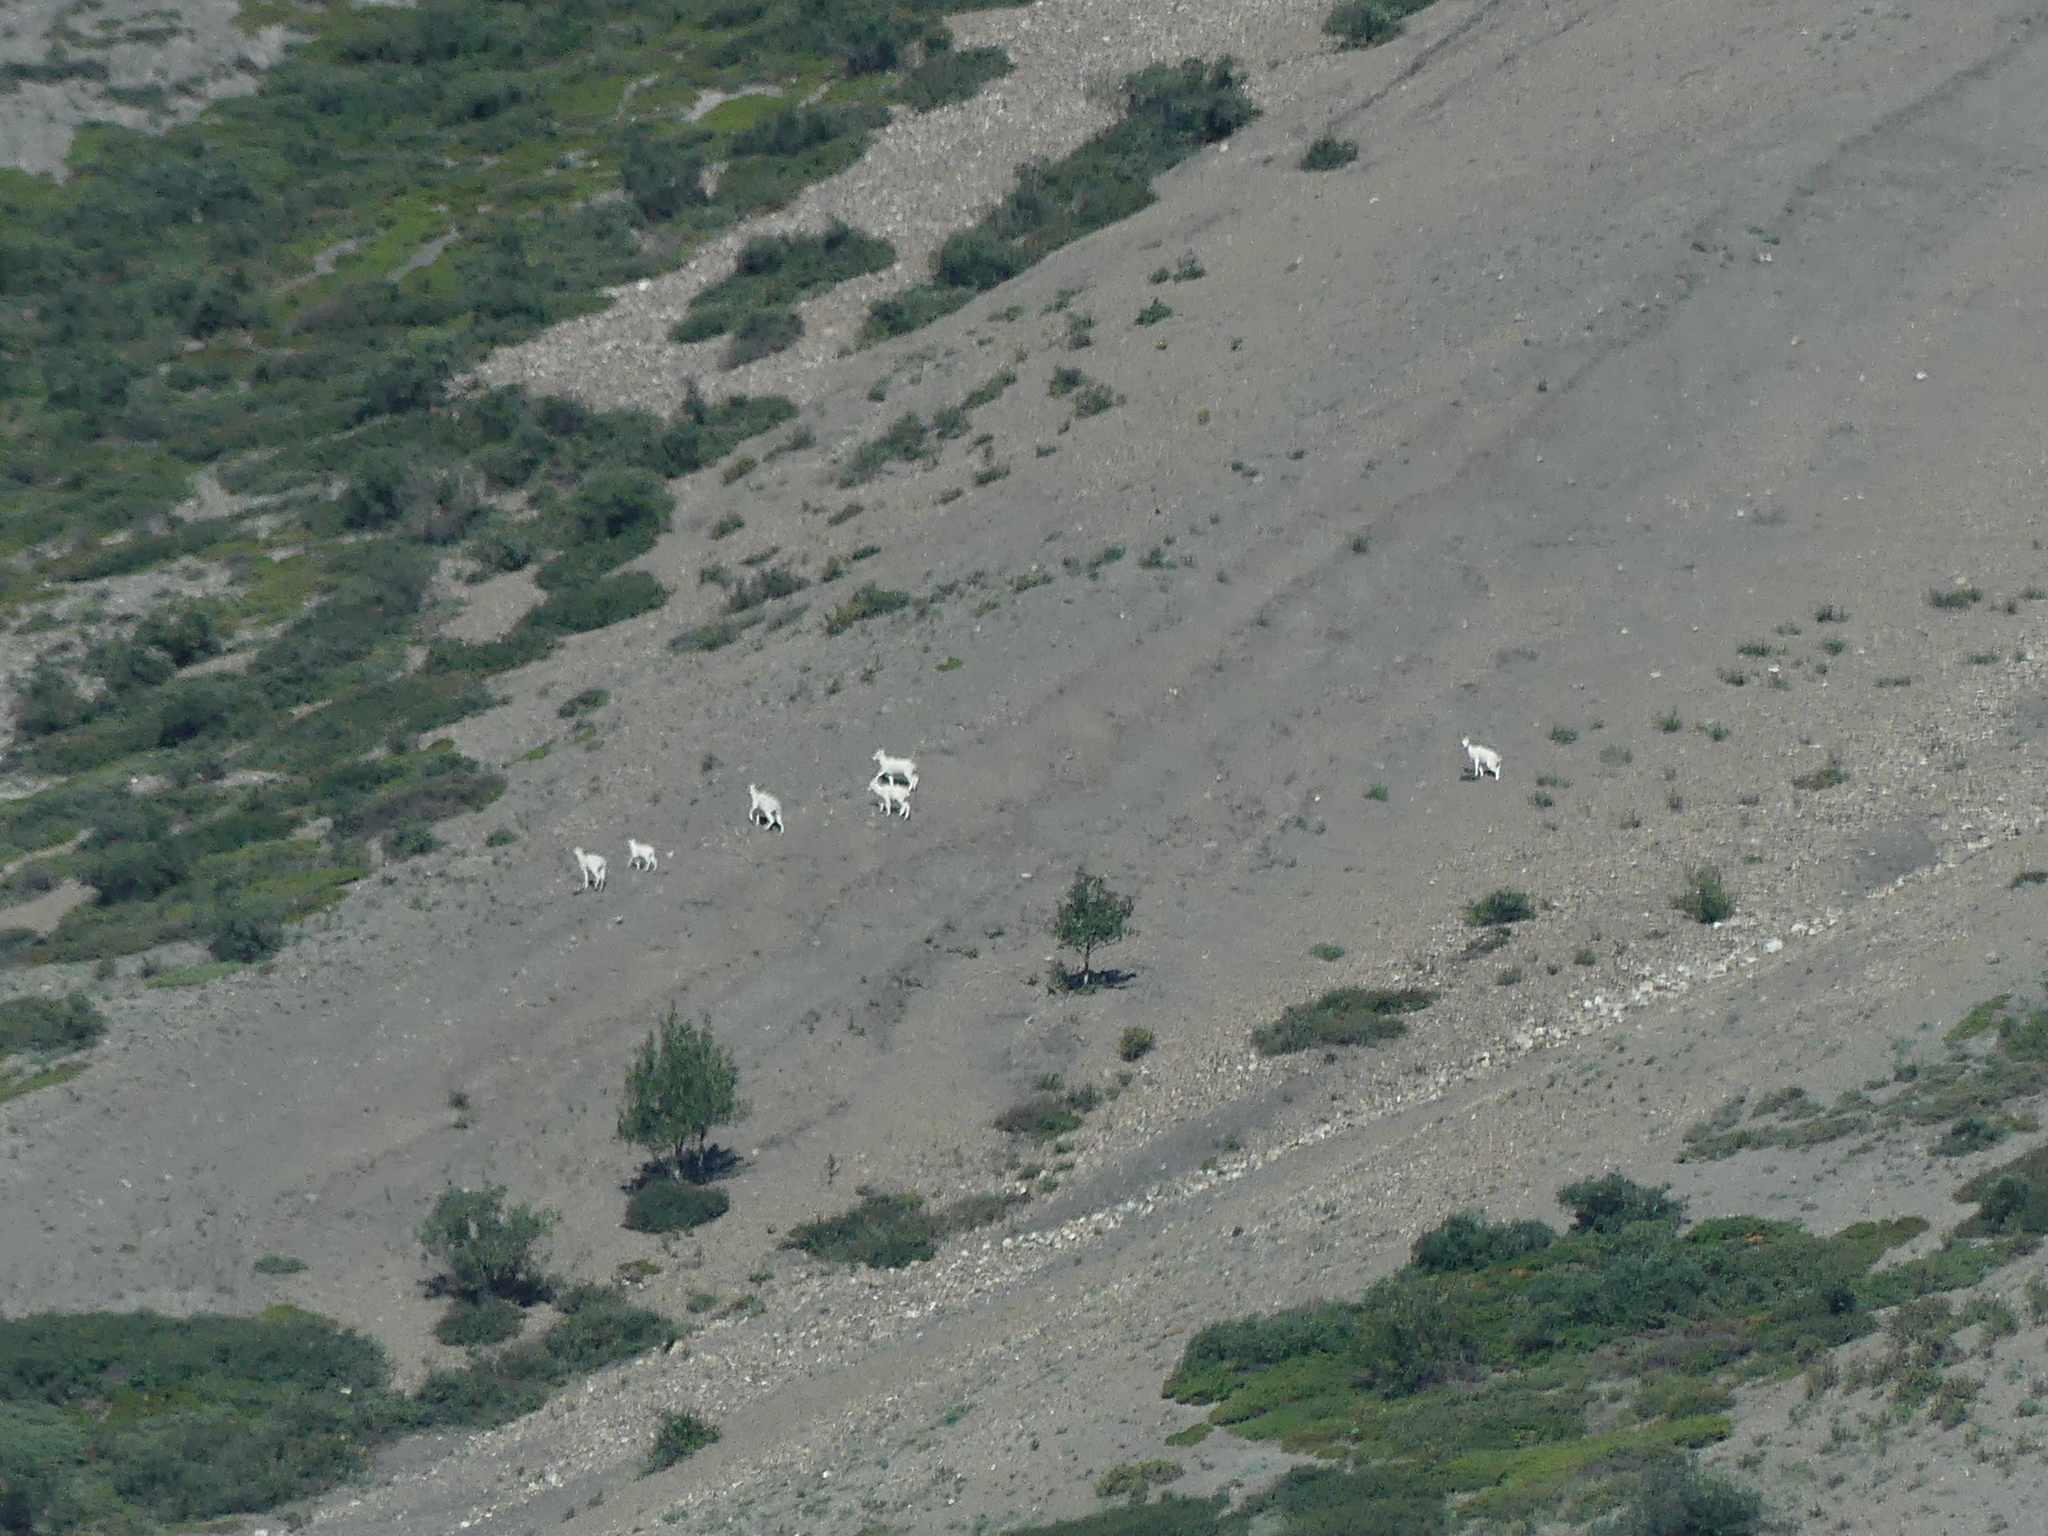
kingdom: Animalia
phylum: Chordata
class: Mammalia
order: Artiodactyla
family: Bovidae
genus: Ovis
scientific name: Ovis dalli
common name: Dall's sheep
